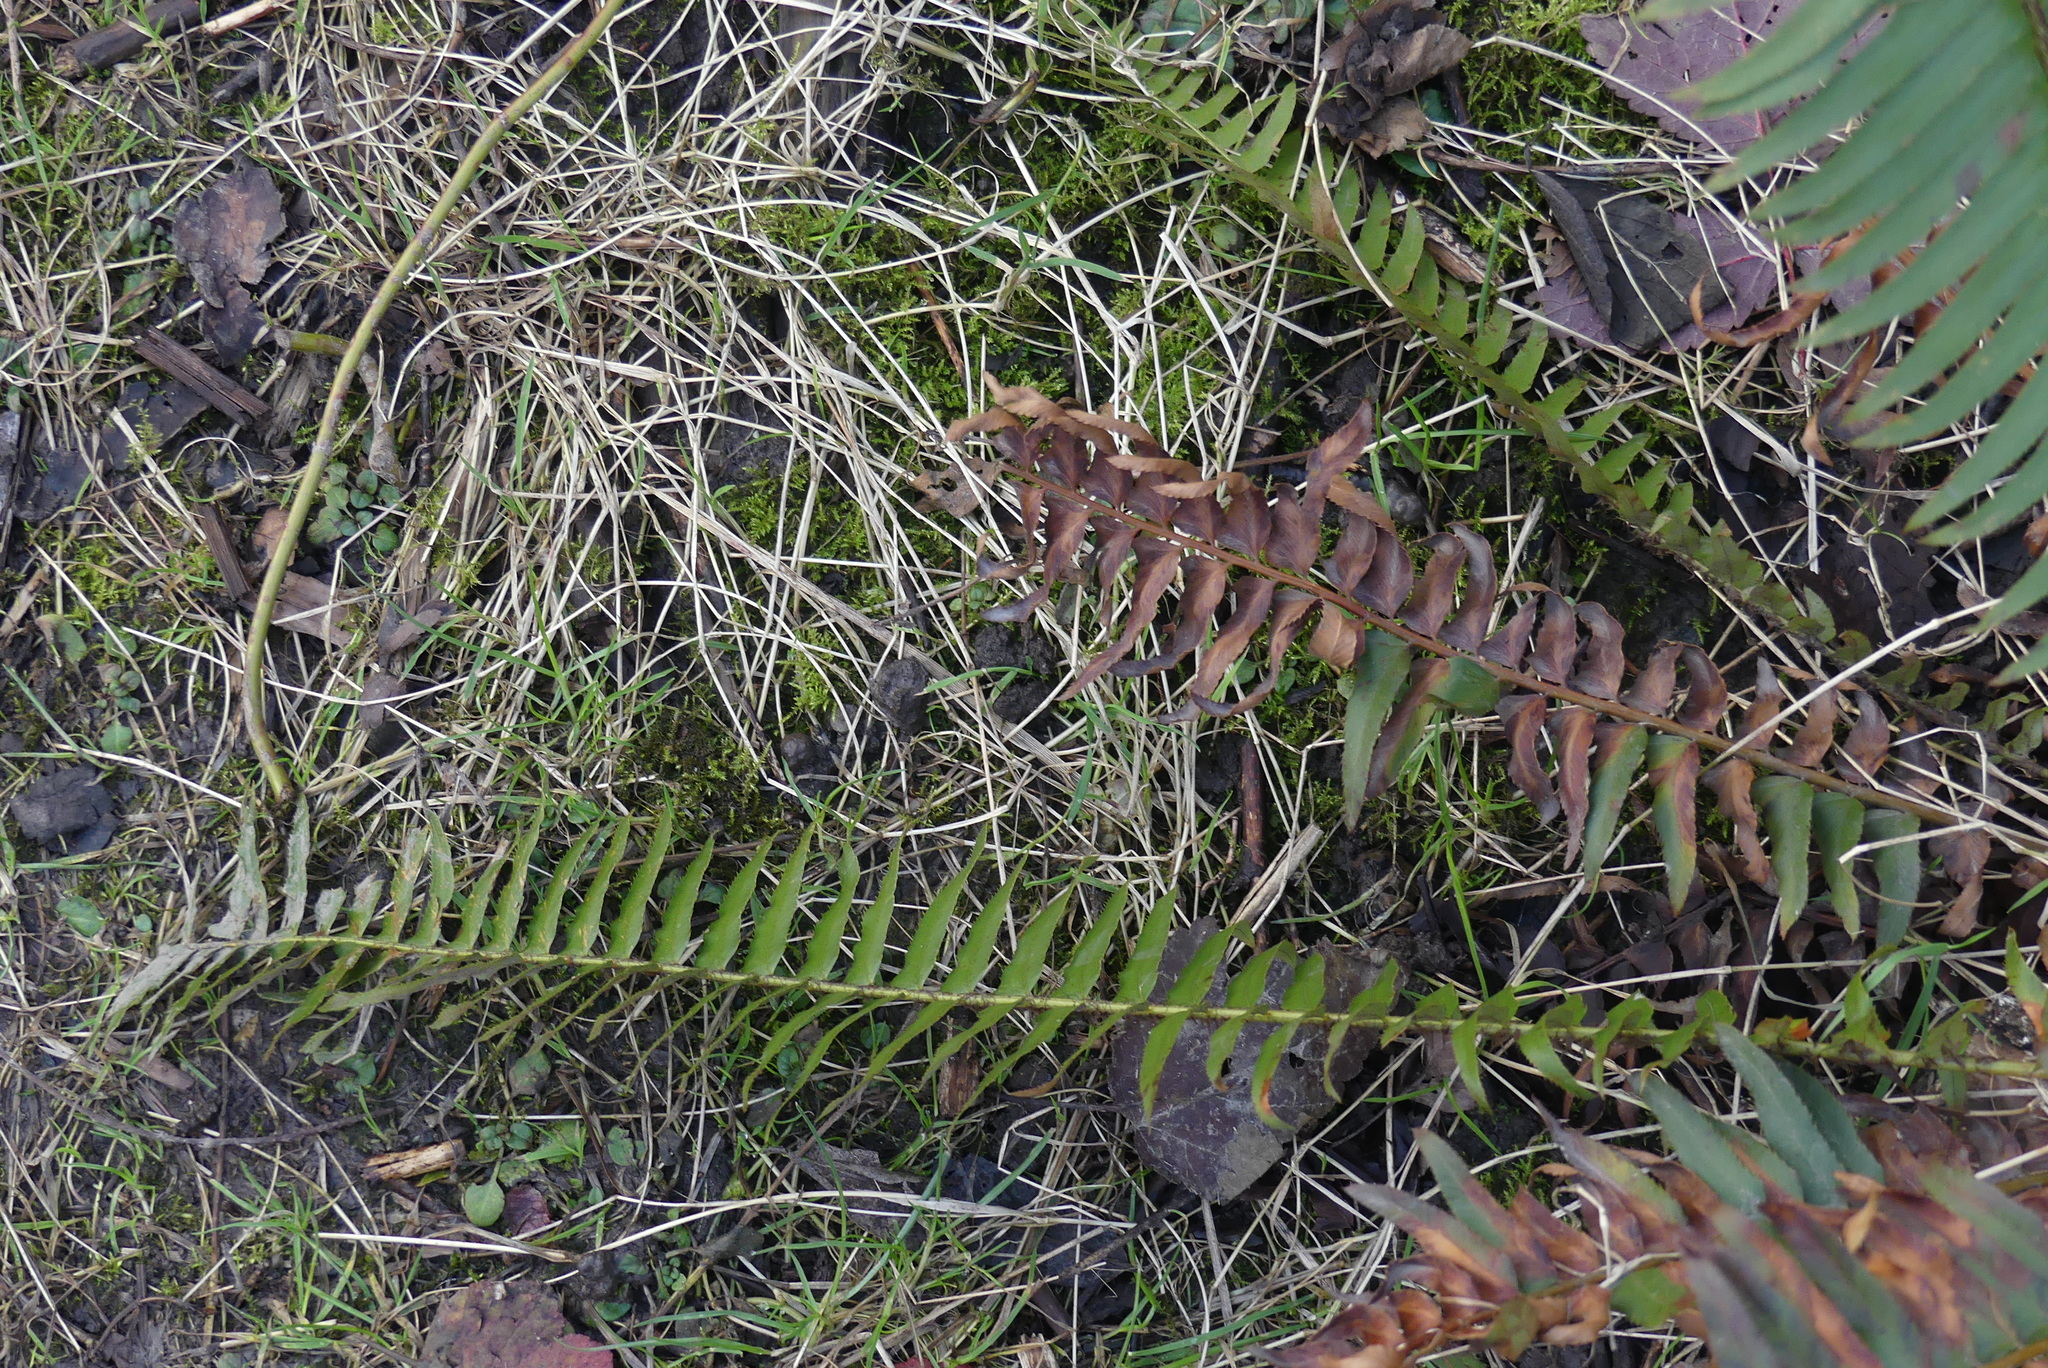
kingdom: Plantae
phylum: Tracheophyta
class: Polypodiopsida
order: Polypodiales
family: Dryopteridaceae
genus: Polystichum
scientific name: Polystichum munitum
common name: Western sword-fern
